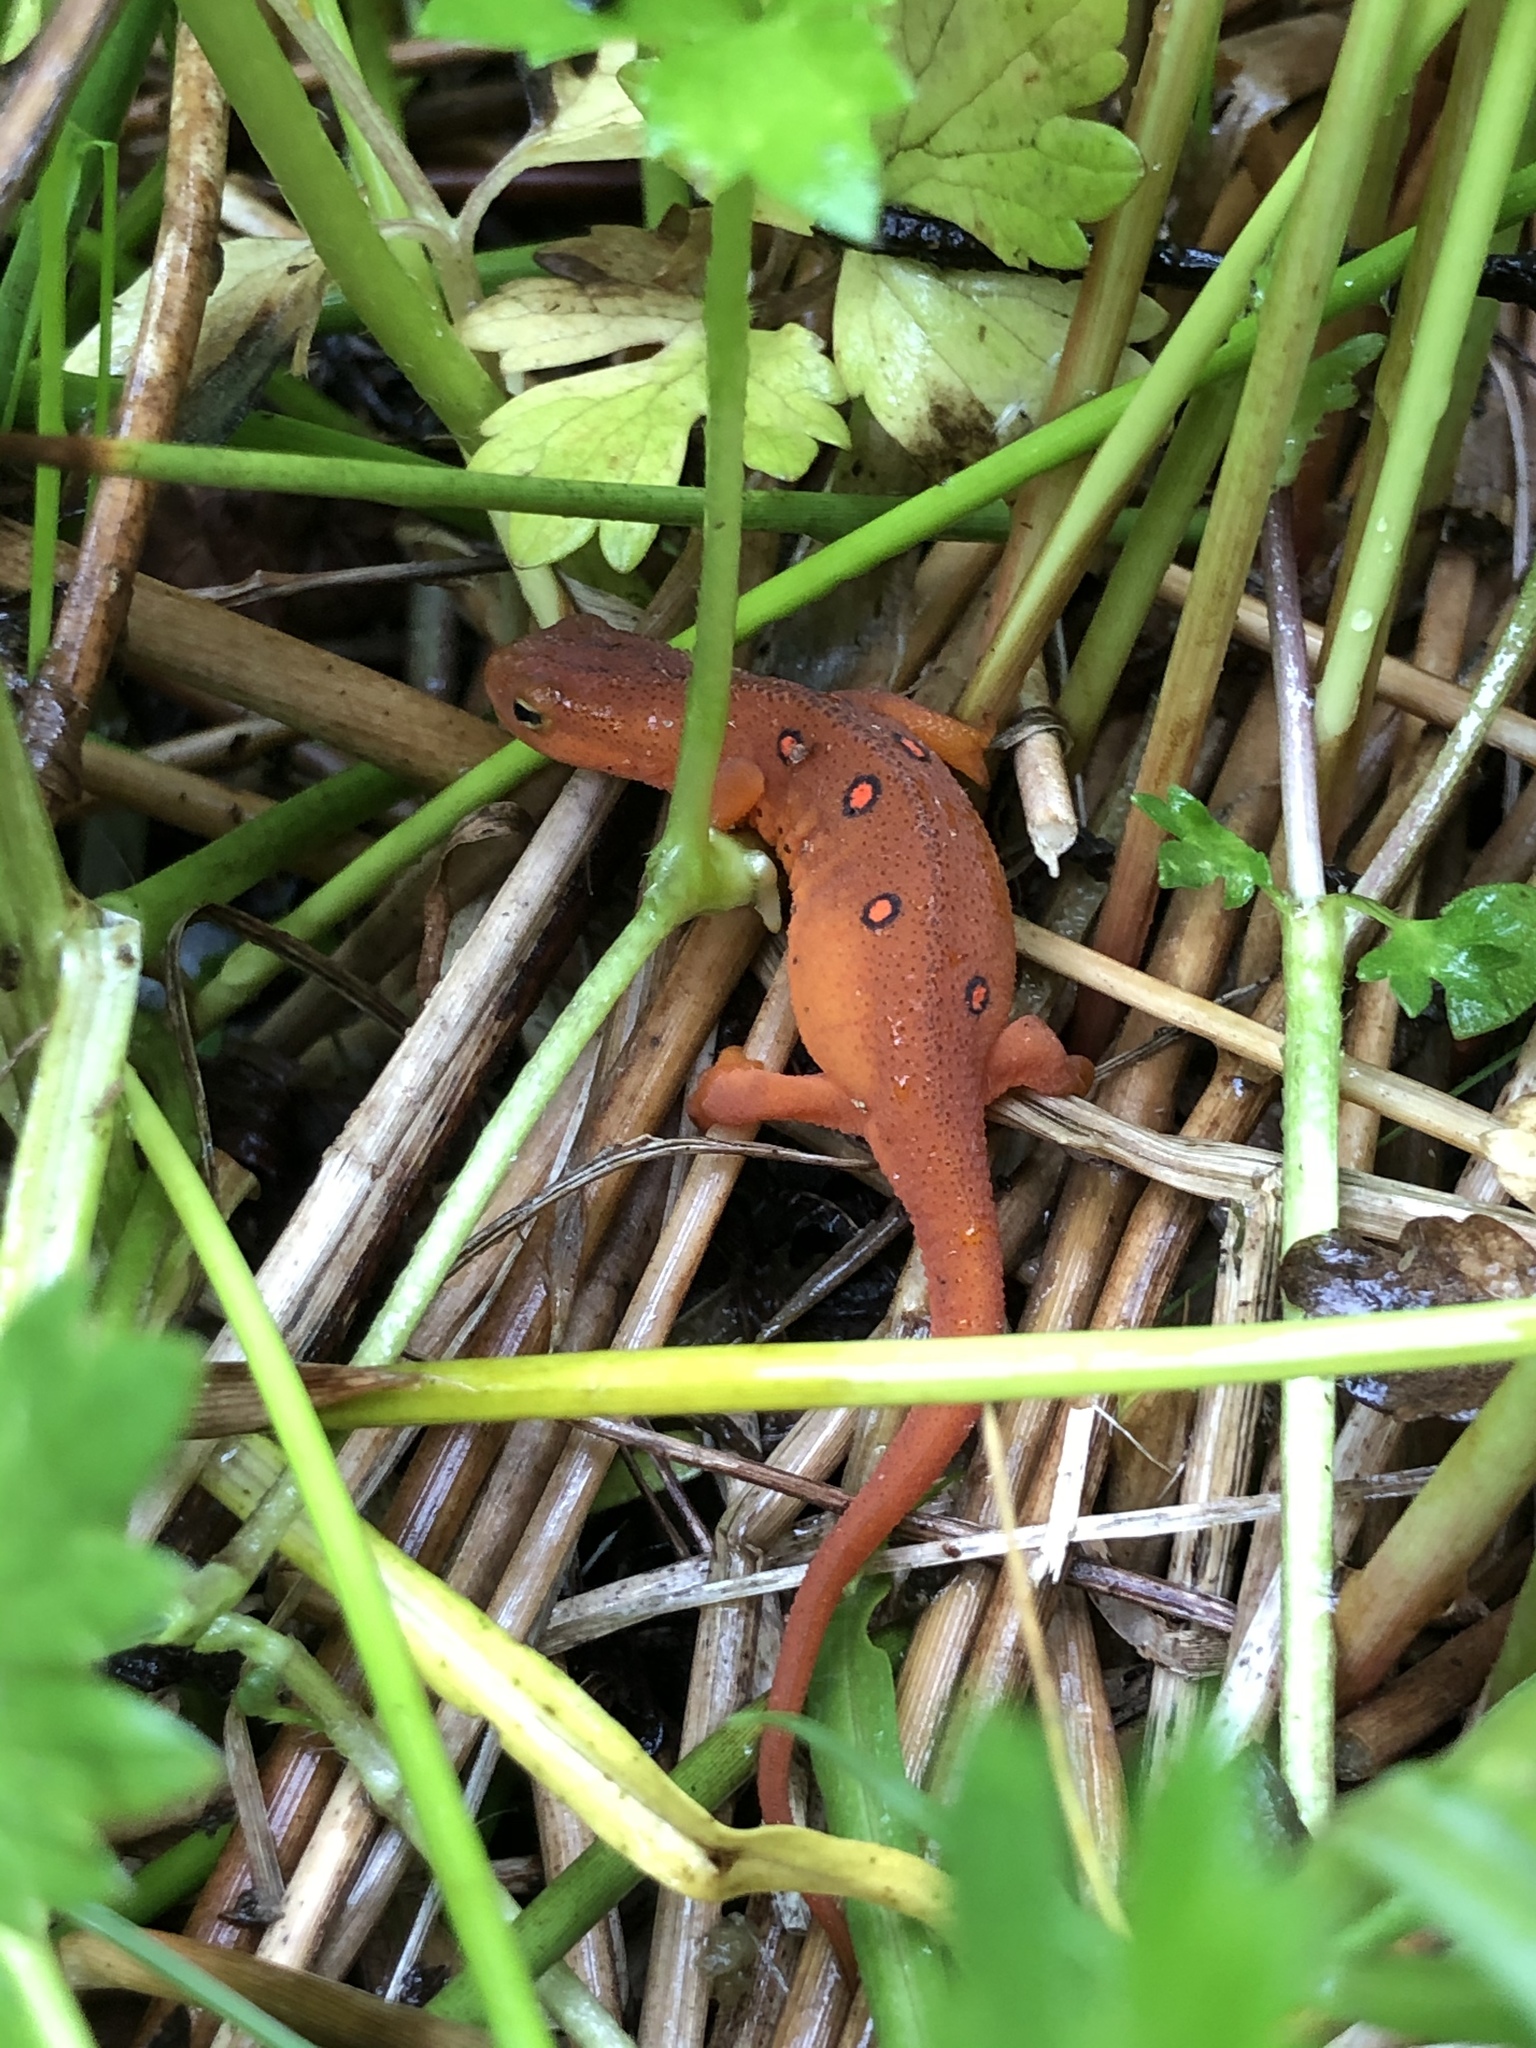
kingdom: Animalia
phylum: Chordata
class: Amphibia
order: Caudata
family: Salamandridae
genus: Notophthalmus
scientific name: Notophthalmus viridescens
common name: Eastern newt
